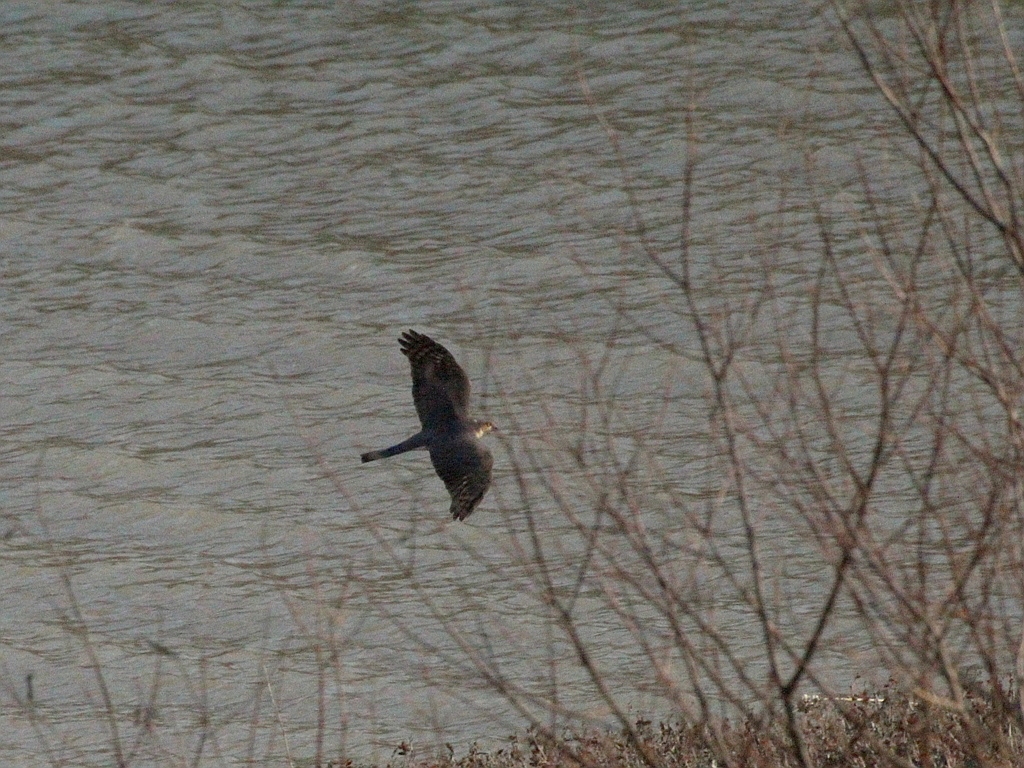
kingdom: Animalia
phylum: Chordata
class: Aves
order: Accipitriformes
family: Accipitridae
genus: Accipiter
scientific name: Accipiter nisus
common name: Eurasian sparrowhawk
